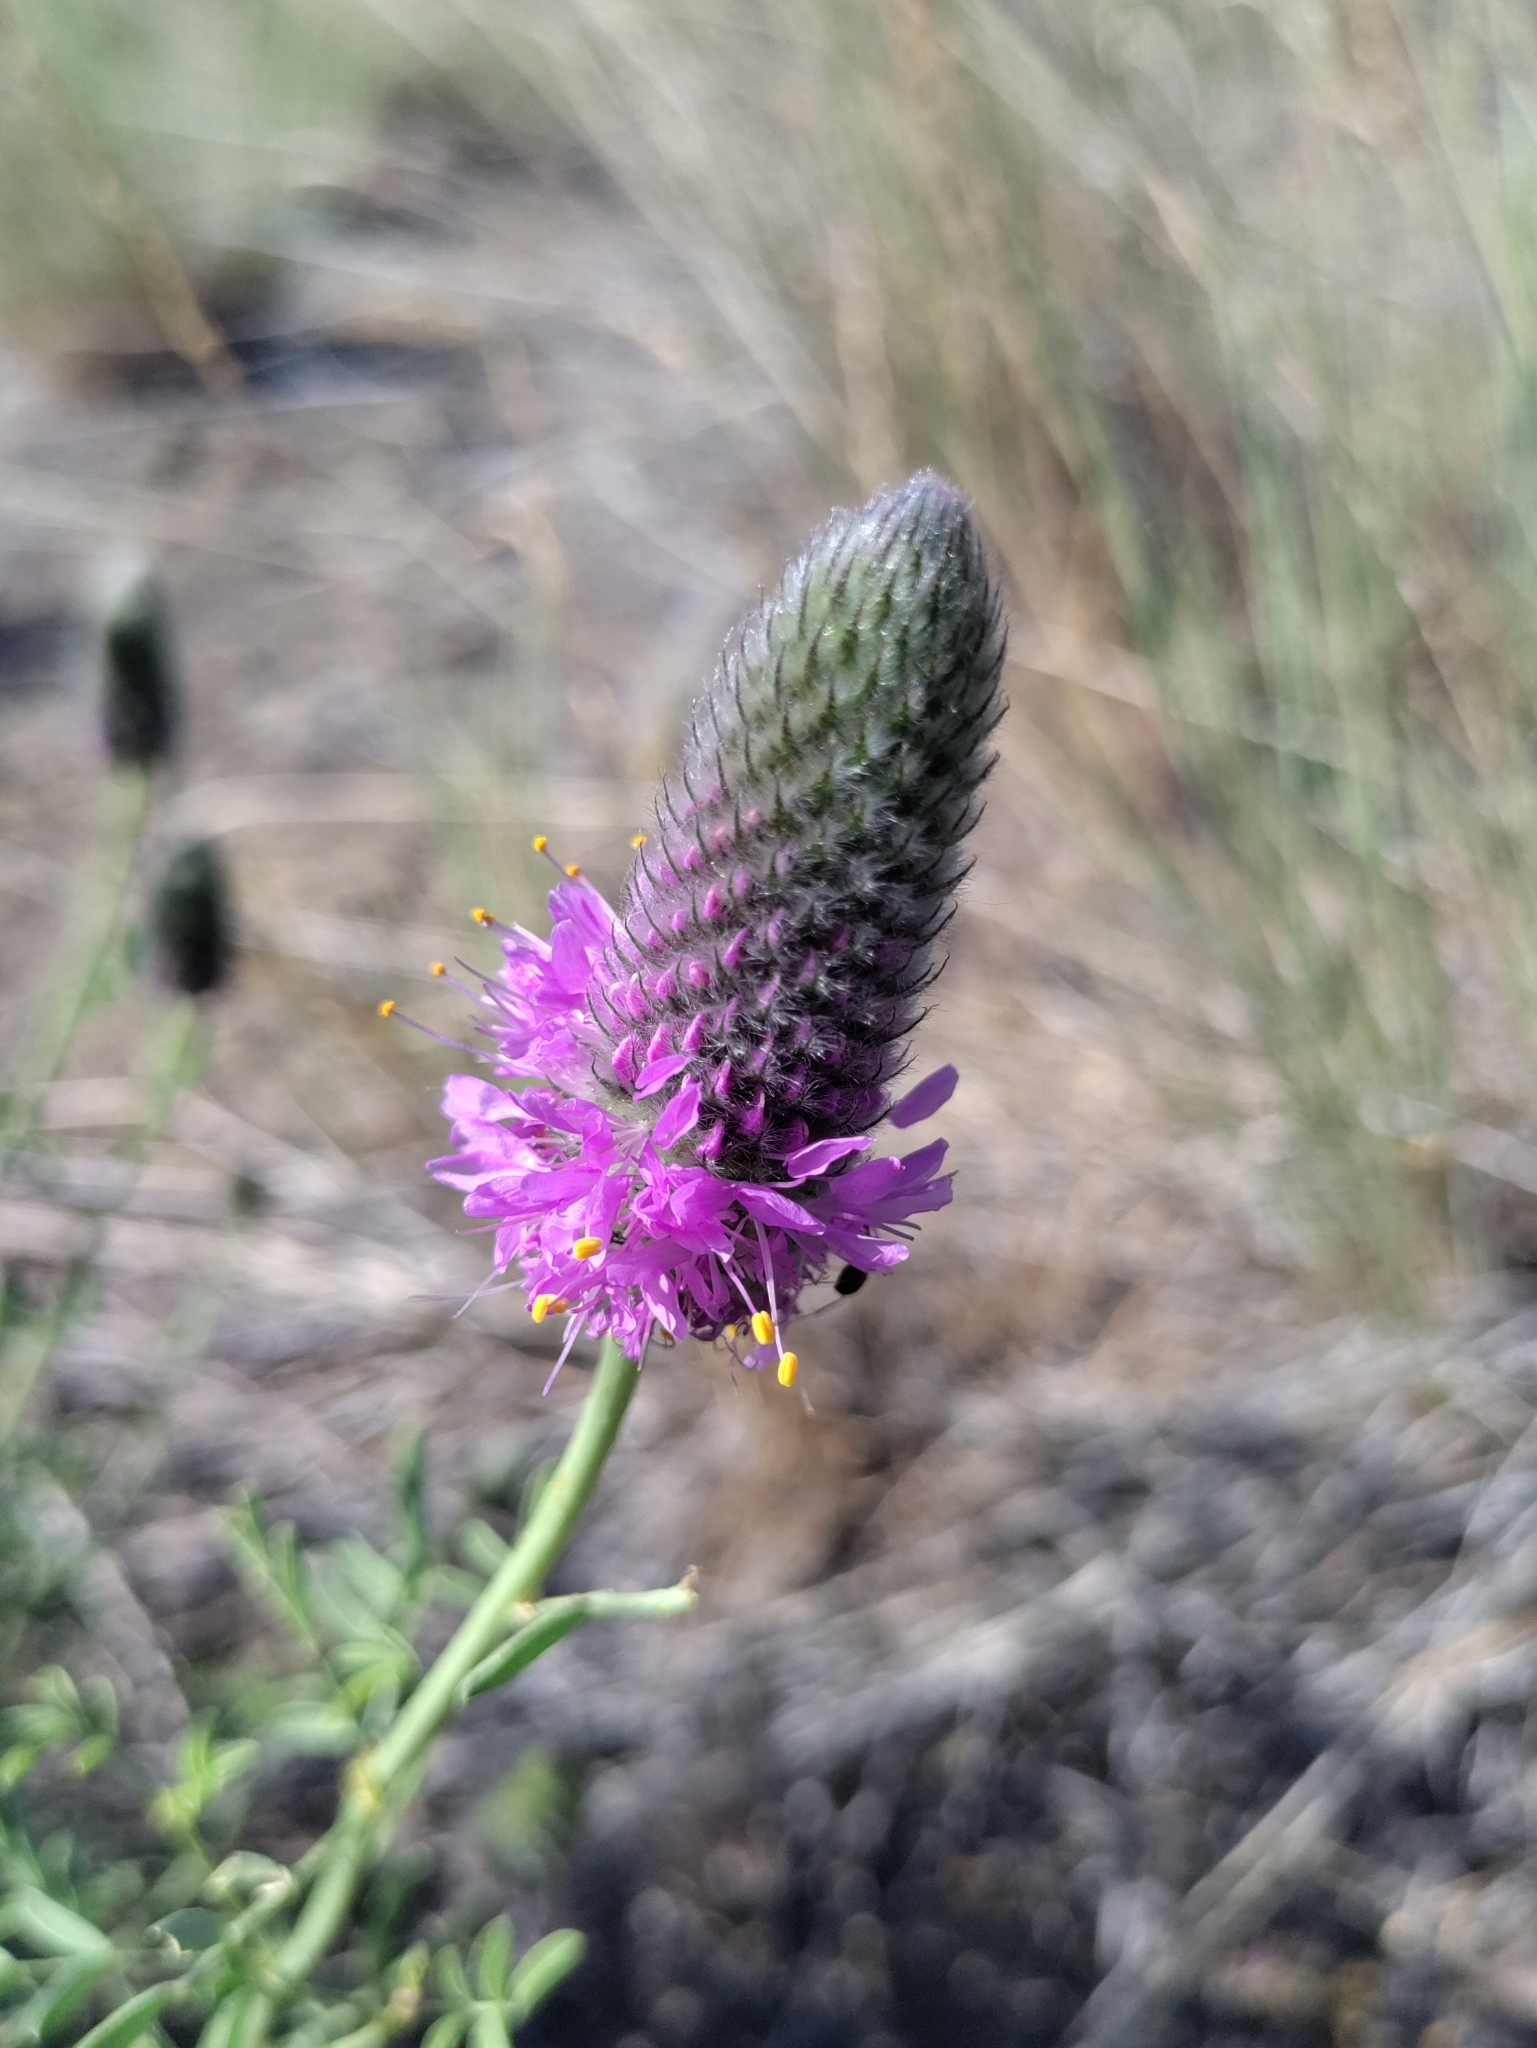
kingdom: Plantae
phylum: Tracheophyta
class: Magnoliopsida
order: Fabales
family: Fabaceae
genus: Dalea
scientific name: Dalea ornata
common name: Blue mountain prairie-clover
